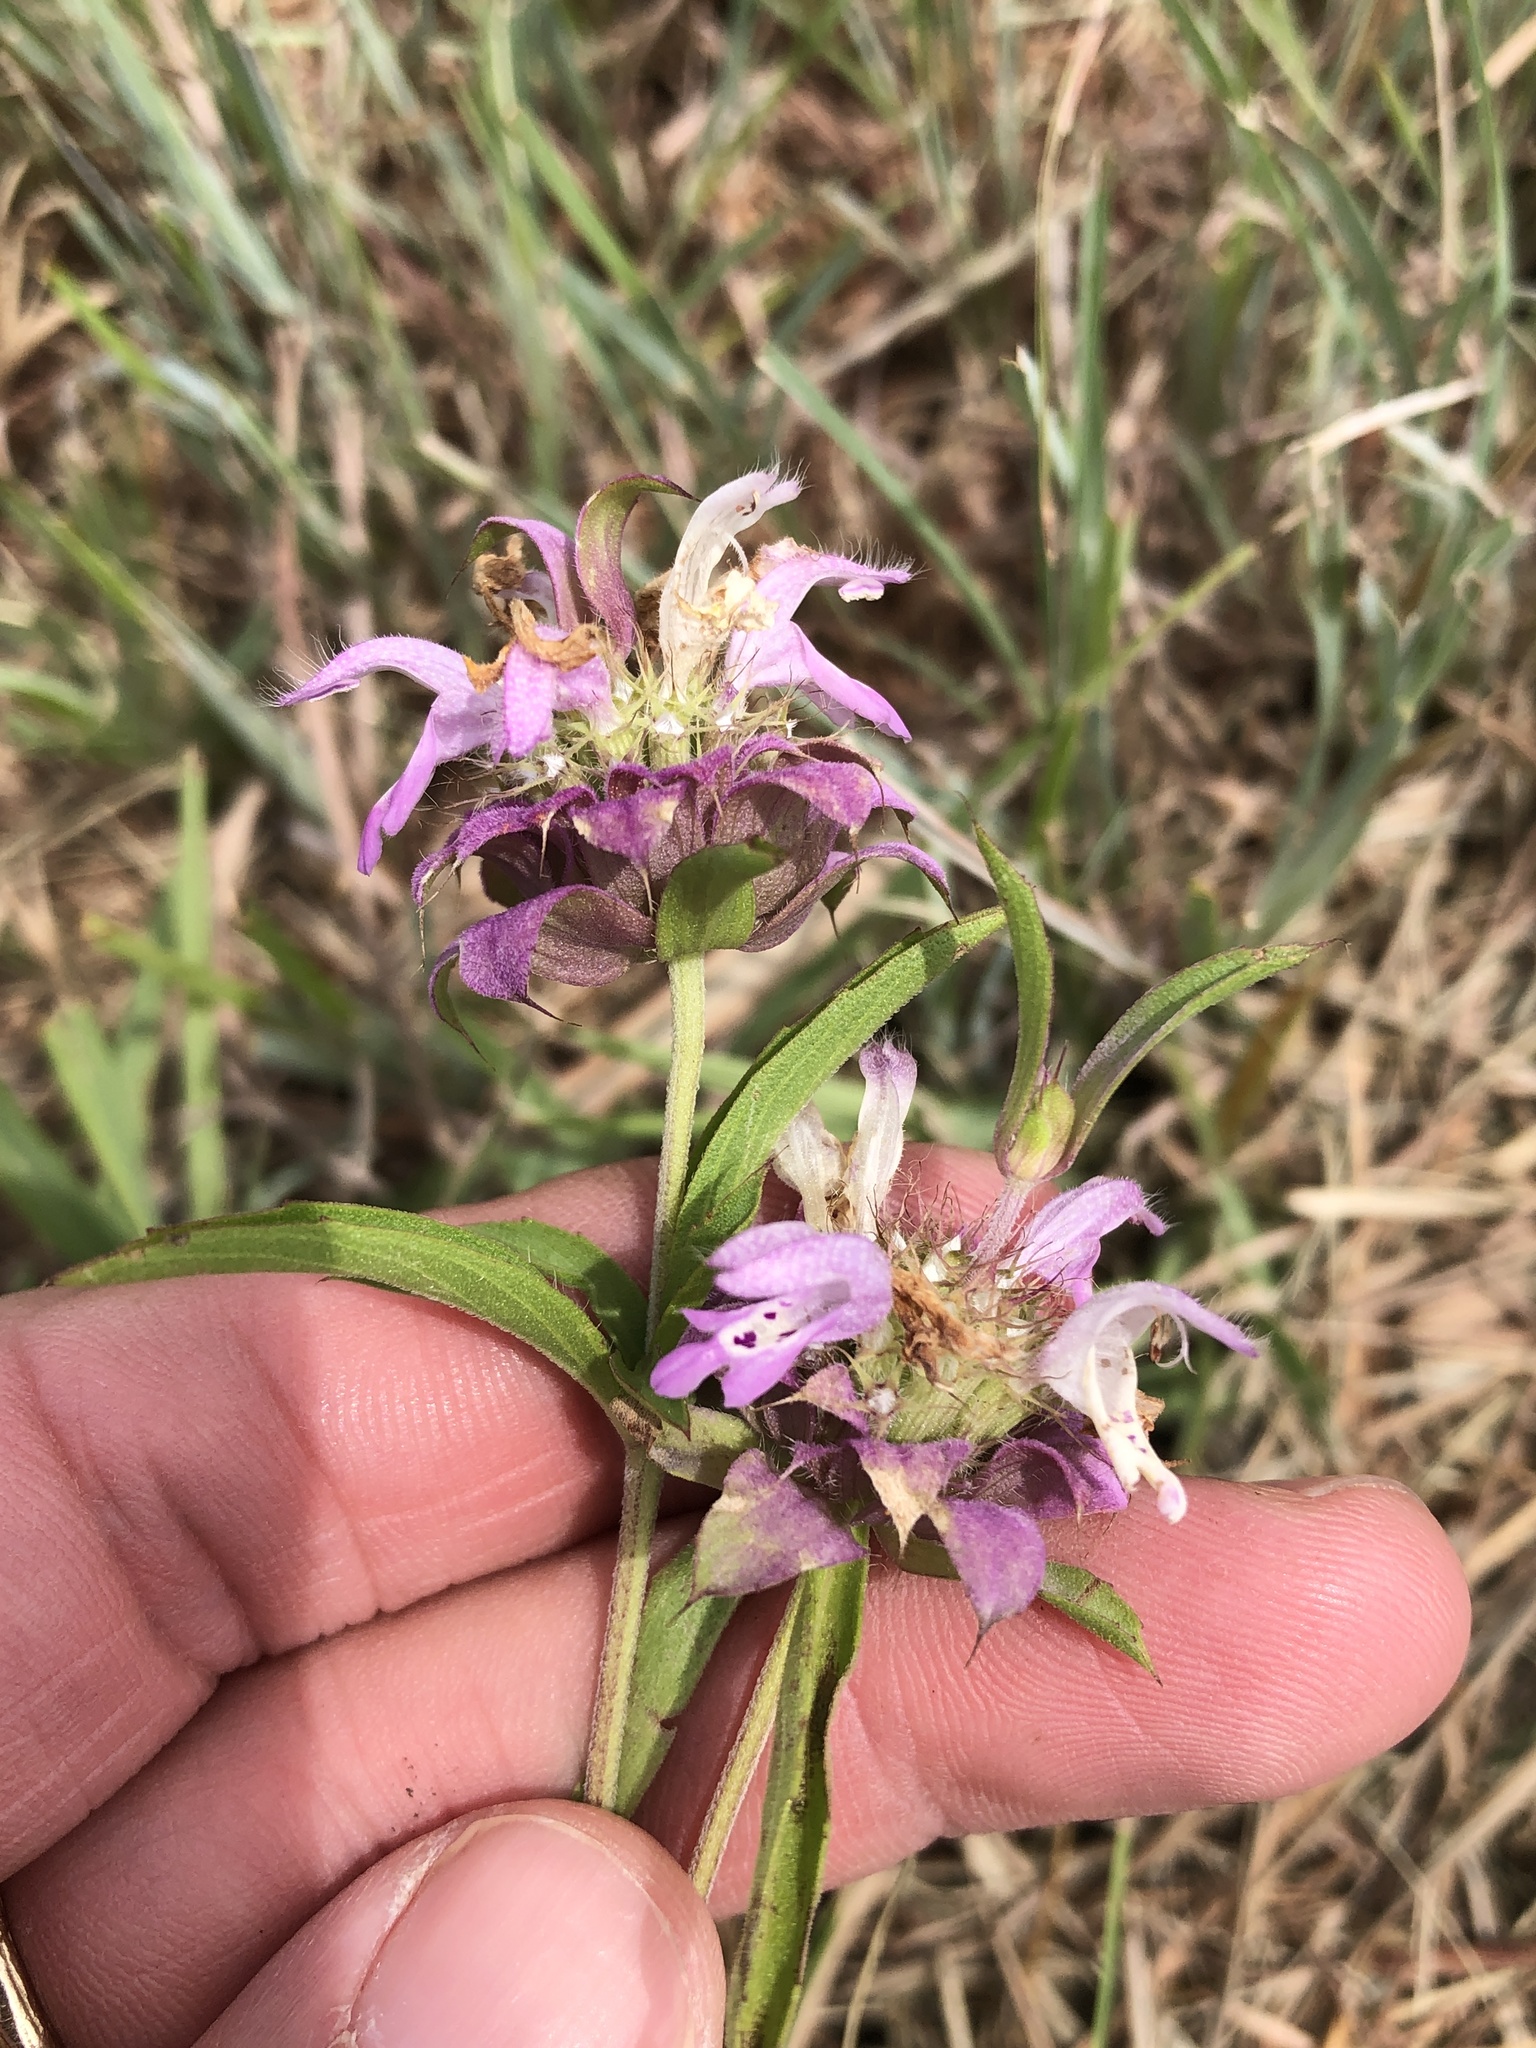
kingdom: Plantae
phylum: Tracheophyta
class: Magnoliopsida
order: Lamiales
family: Lamiaceae
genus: Monarda
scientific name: Monarda citriodora
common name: Lemon beebalm
